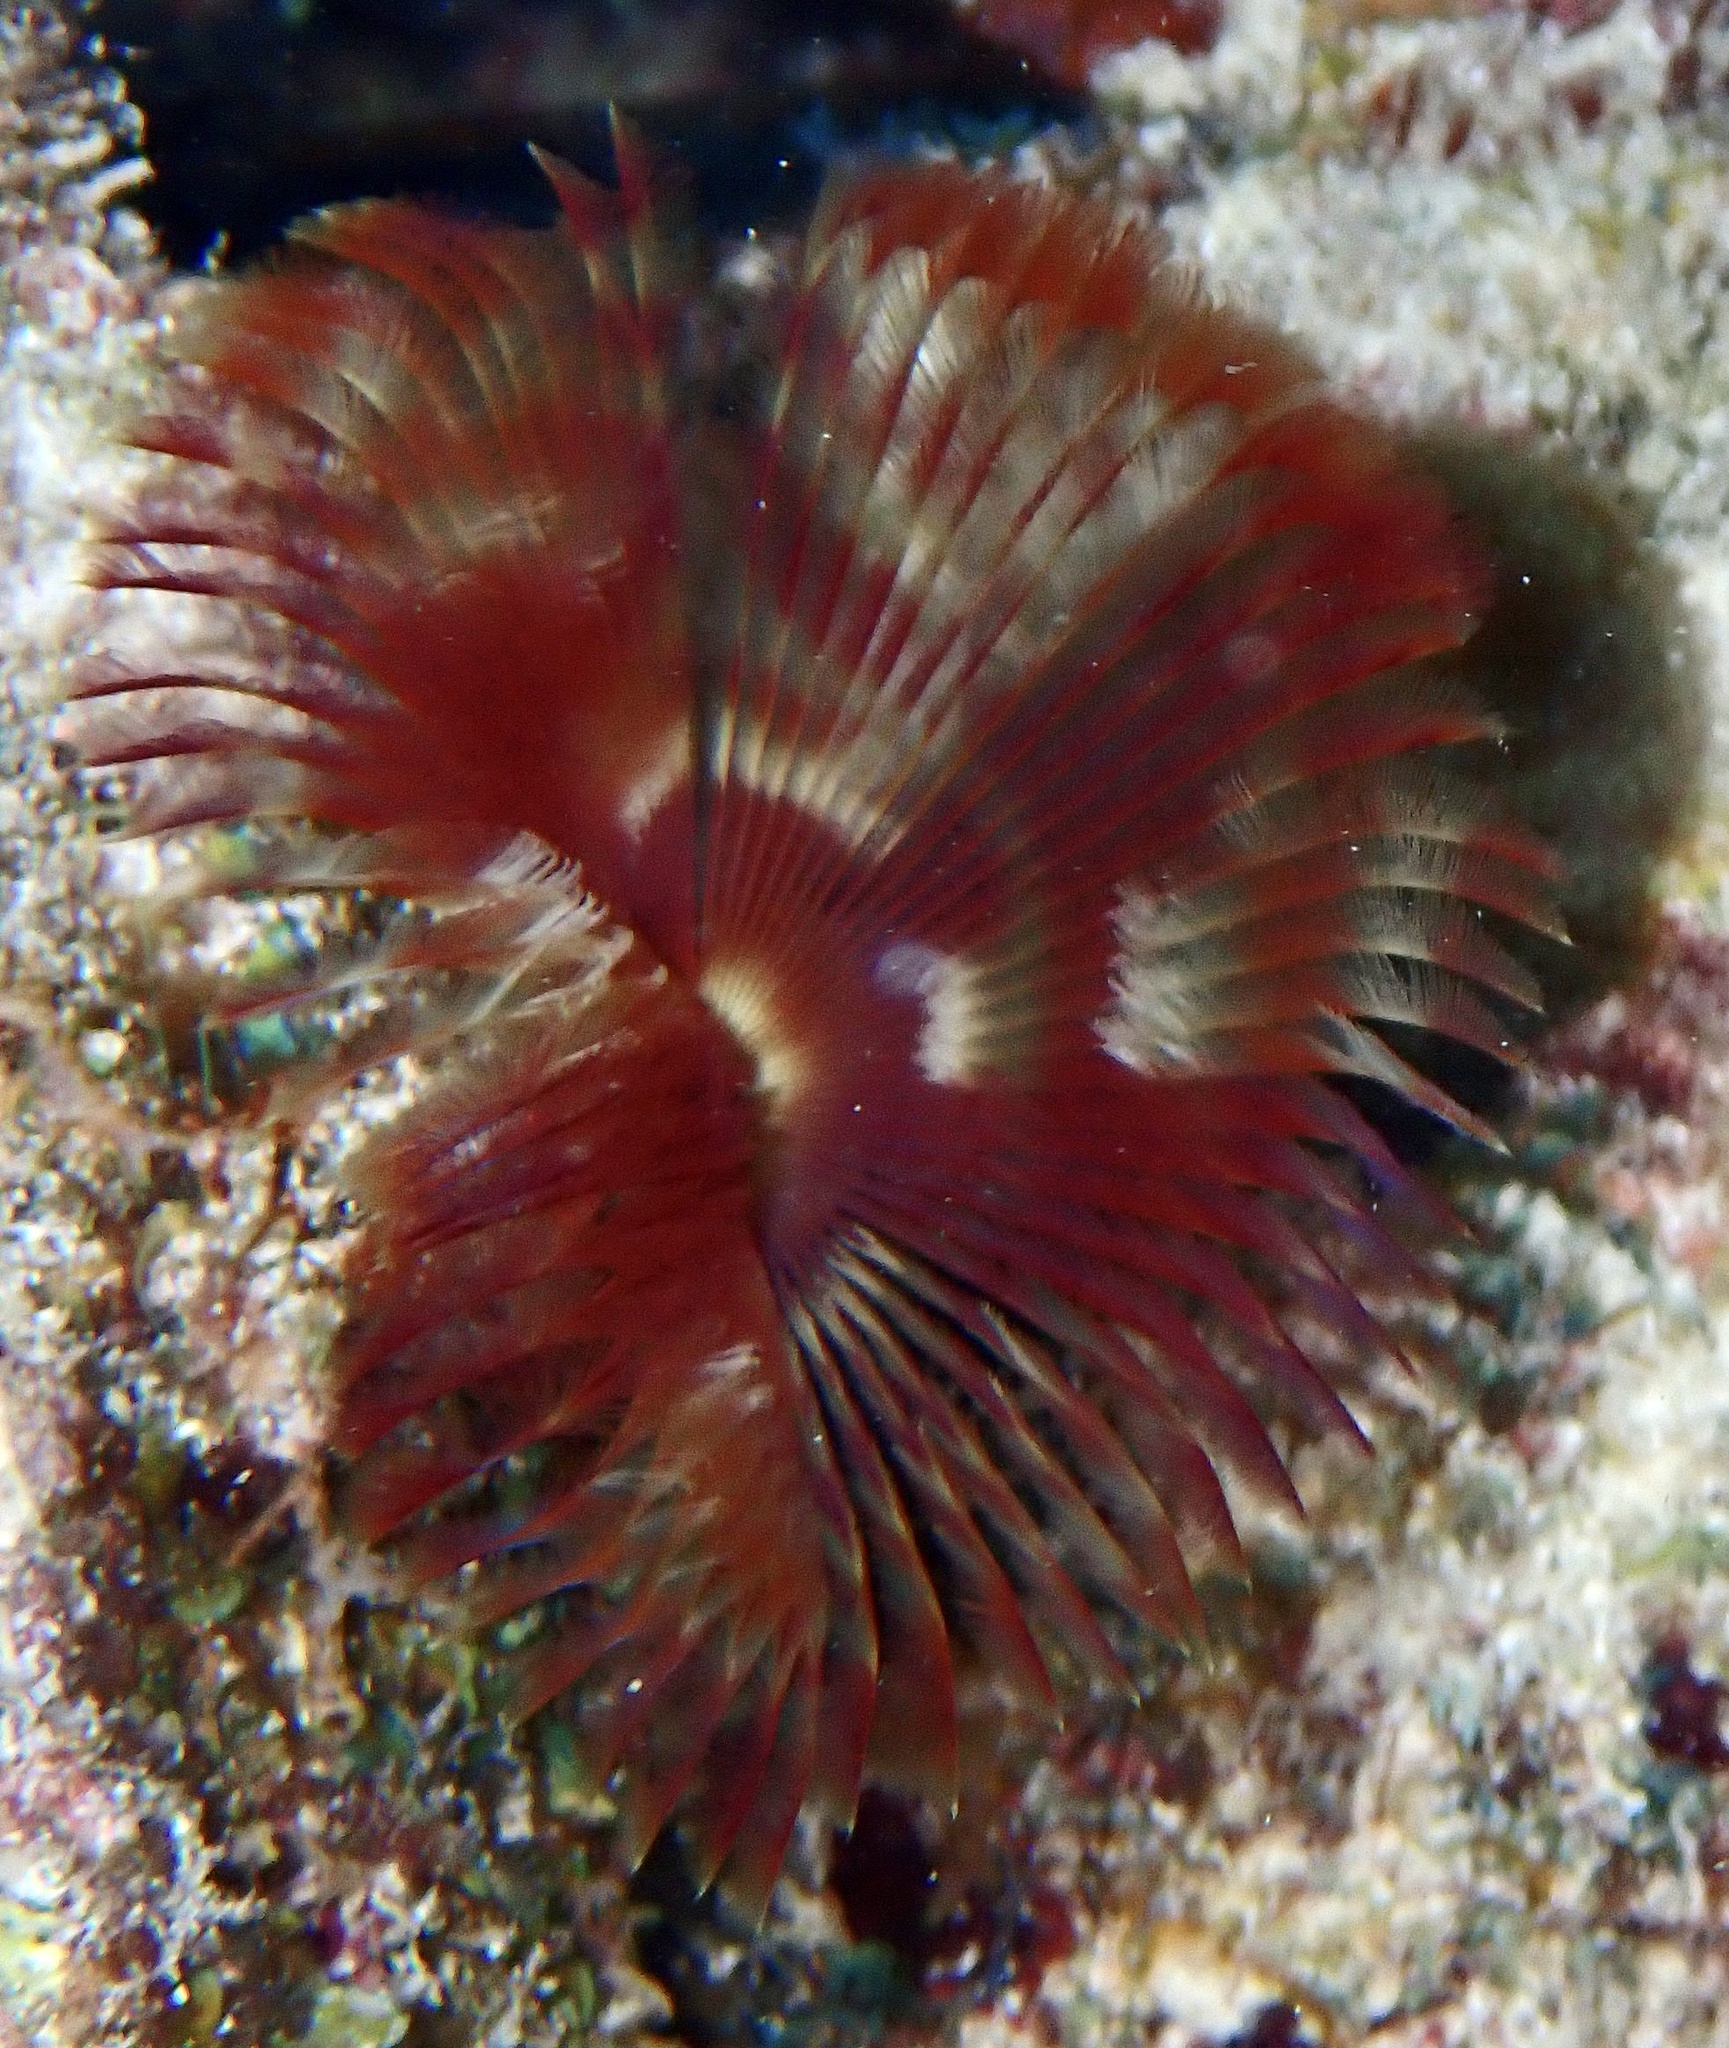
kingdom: Animalia
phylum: Annelida
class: Polychaeta
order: Sabellida
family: Sabellidae
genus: Anamobaea
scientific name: Anamobaea orstedii
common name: Split-crown feather duster
